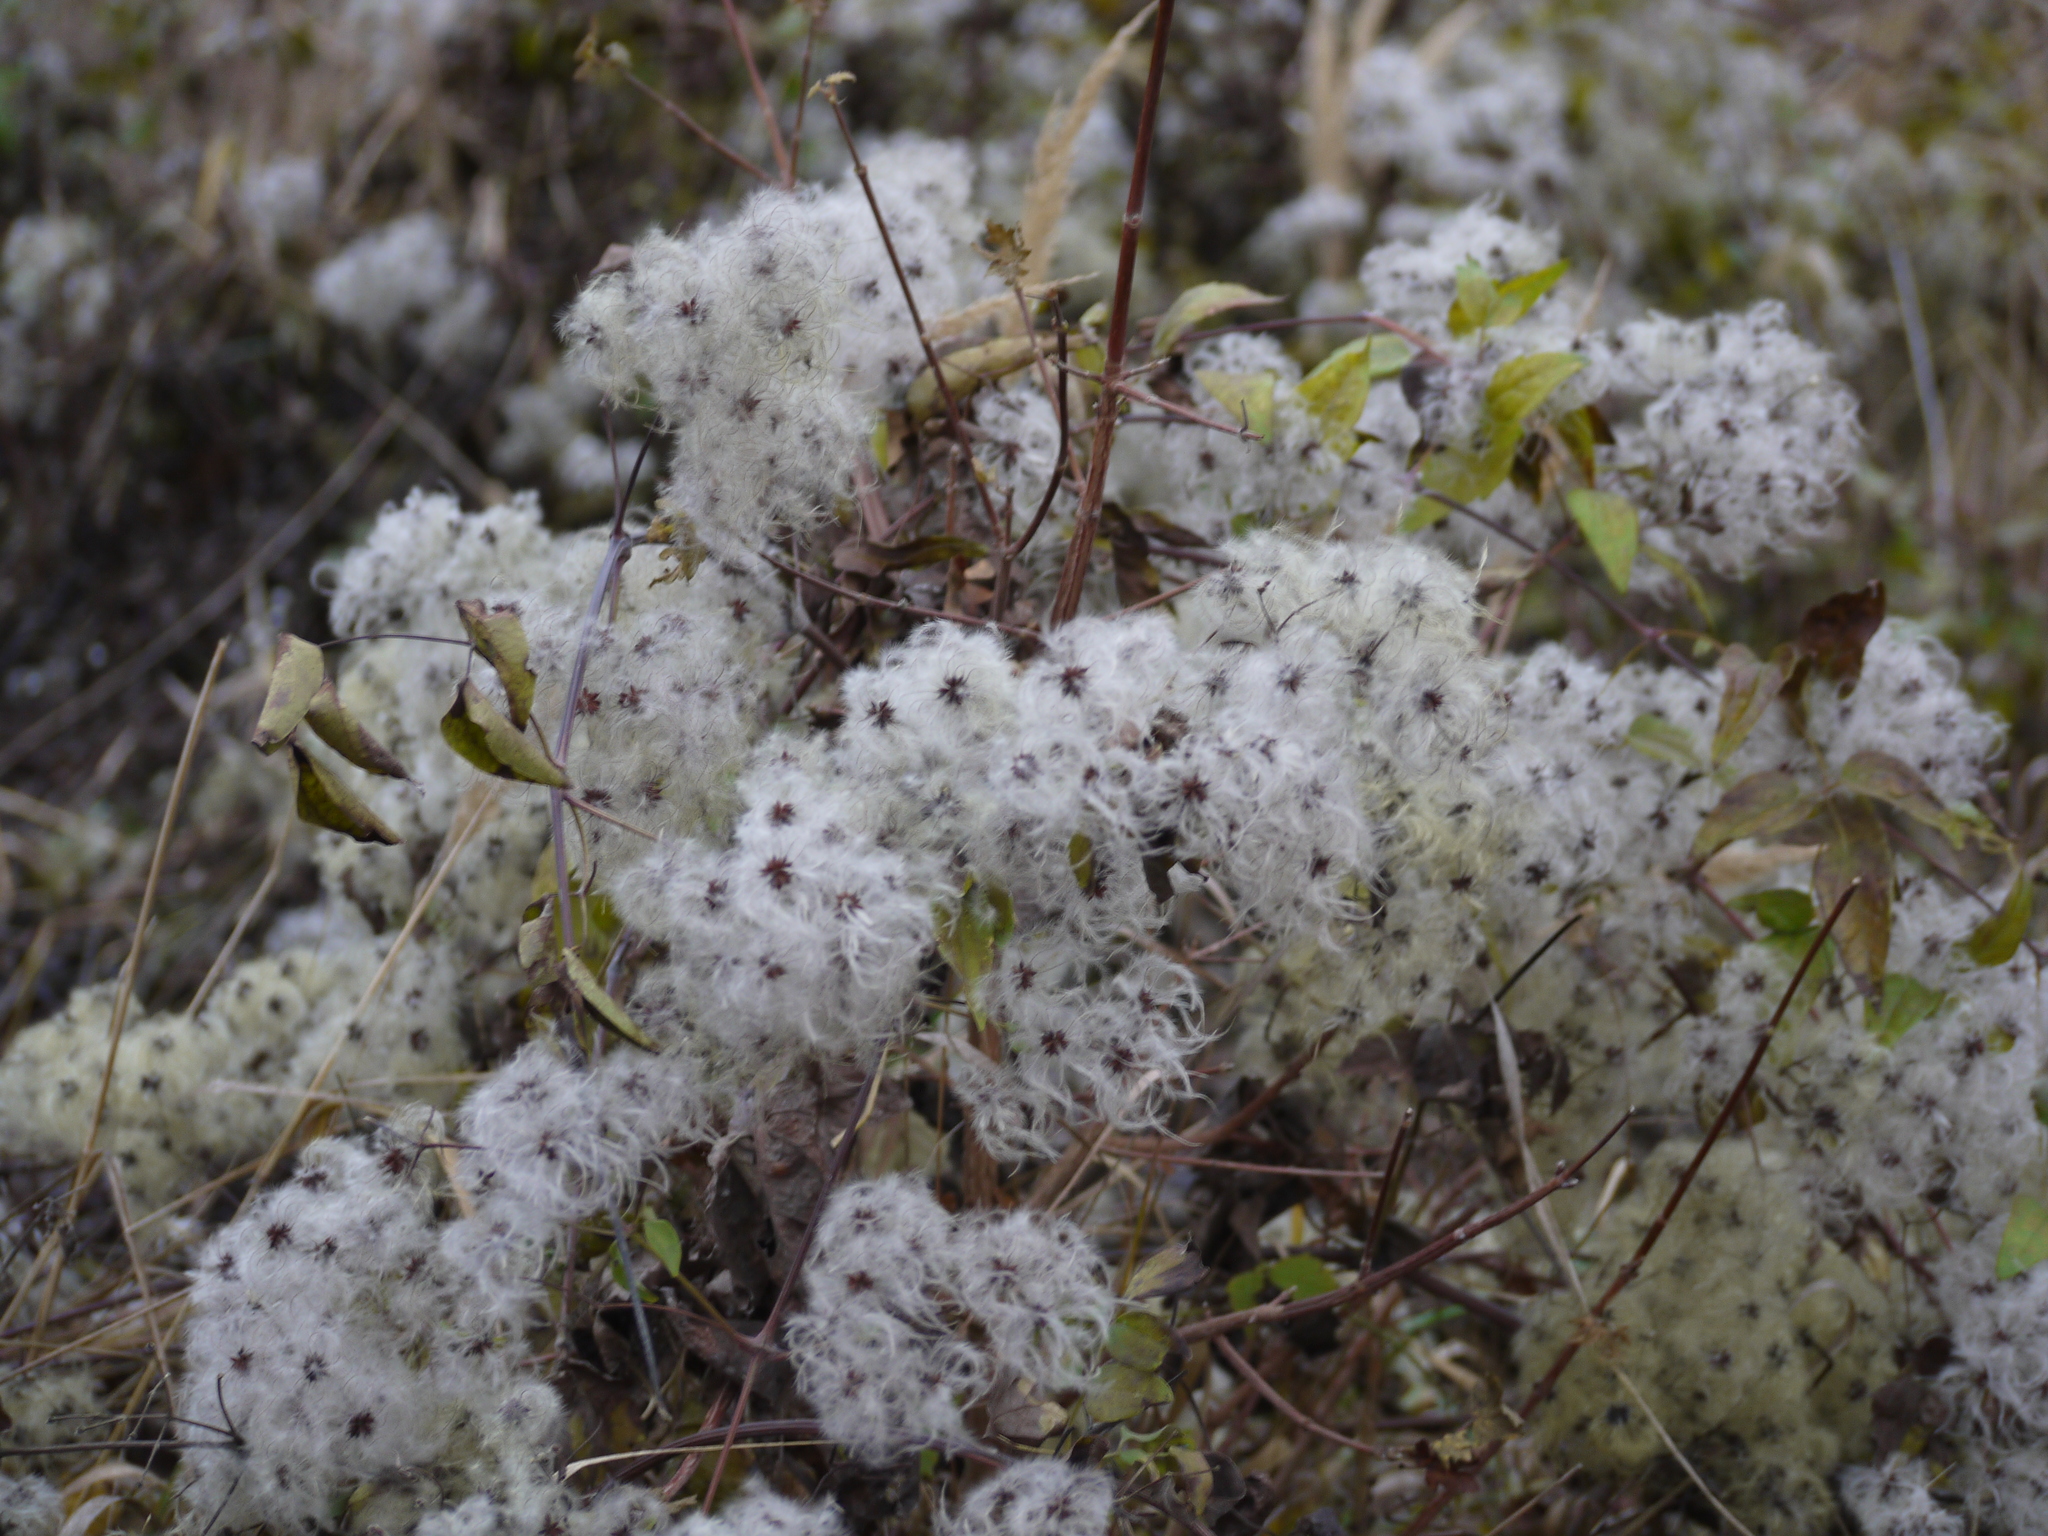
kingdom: Plantae
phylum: Tracheophyta
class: Magnoliopsida
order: Ranunculales
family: Ranunculaceae
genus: Clematis
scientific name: Clematis vitalba
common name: Evergreen clematis
